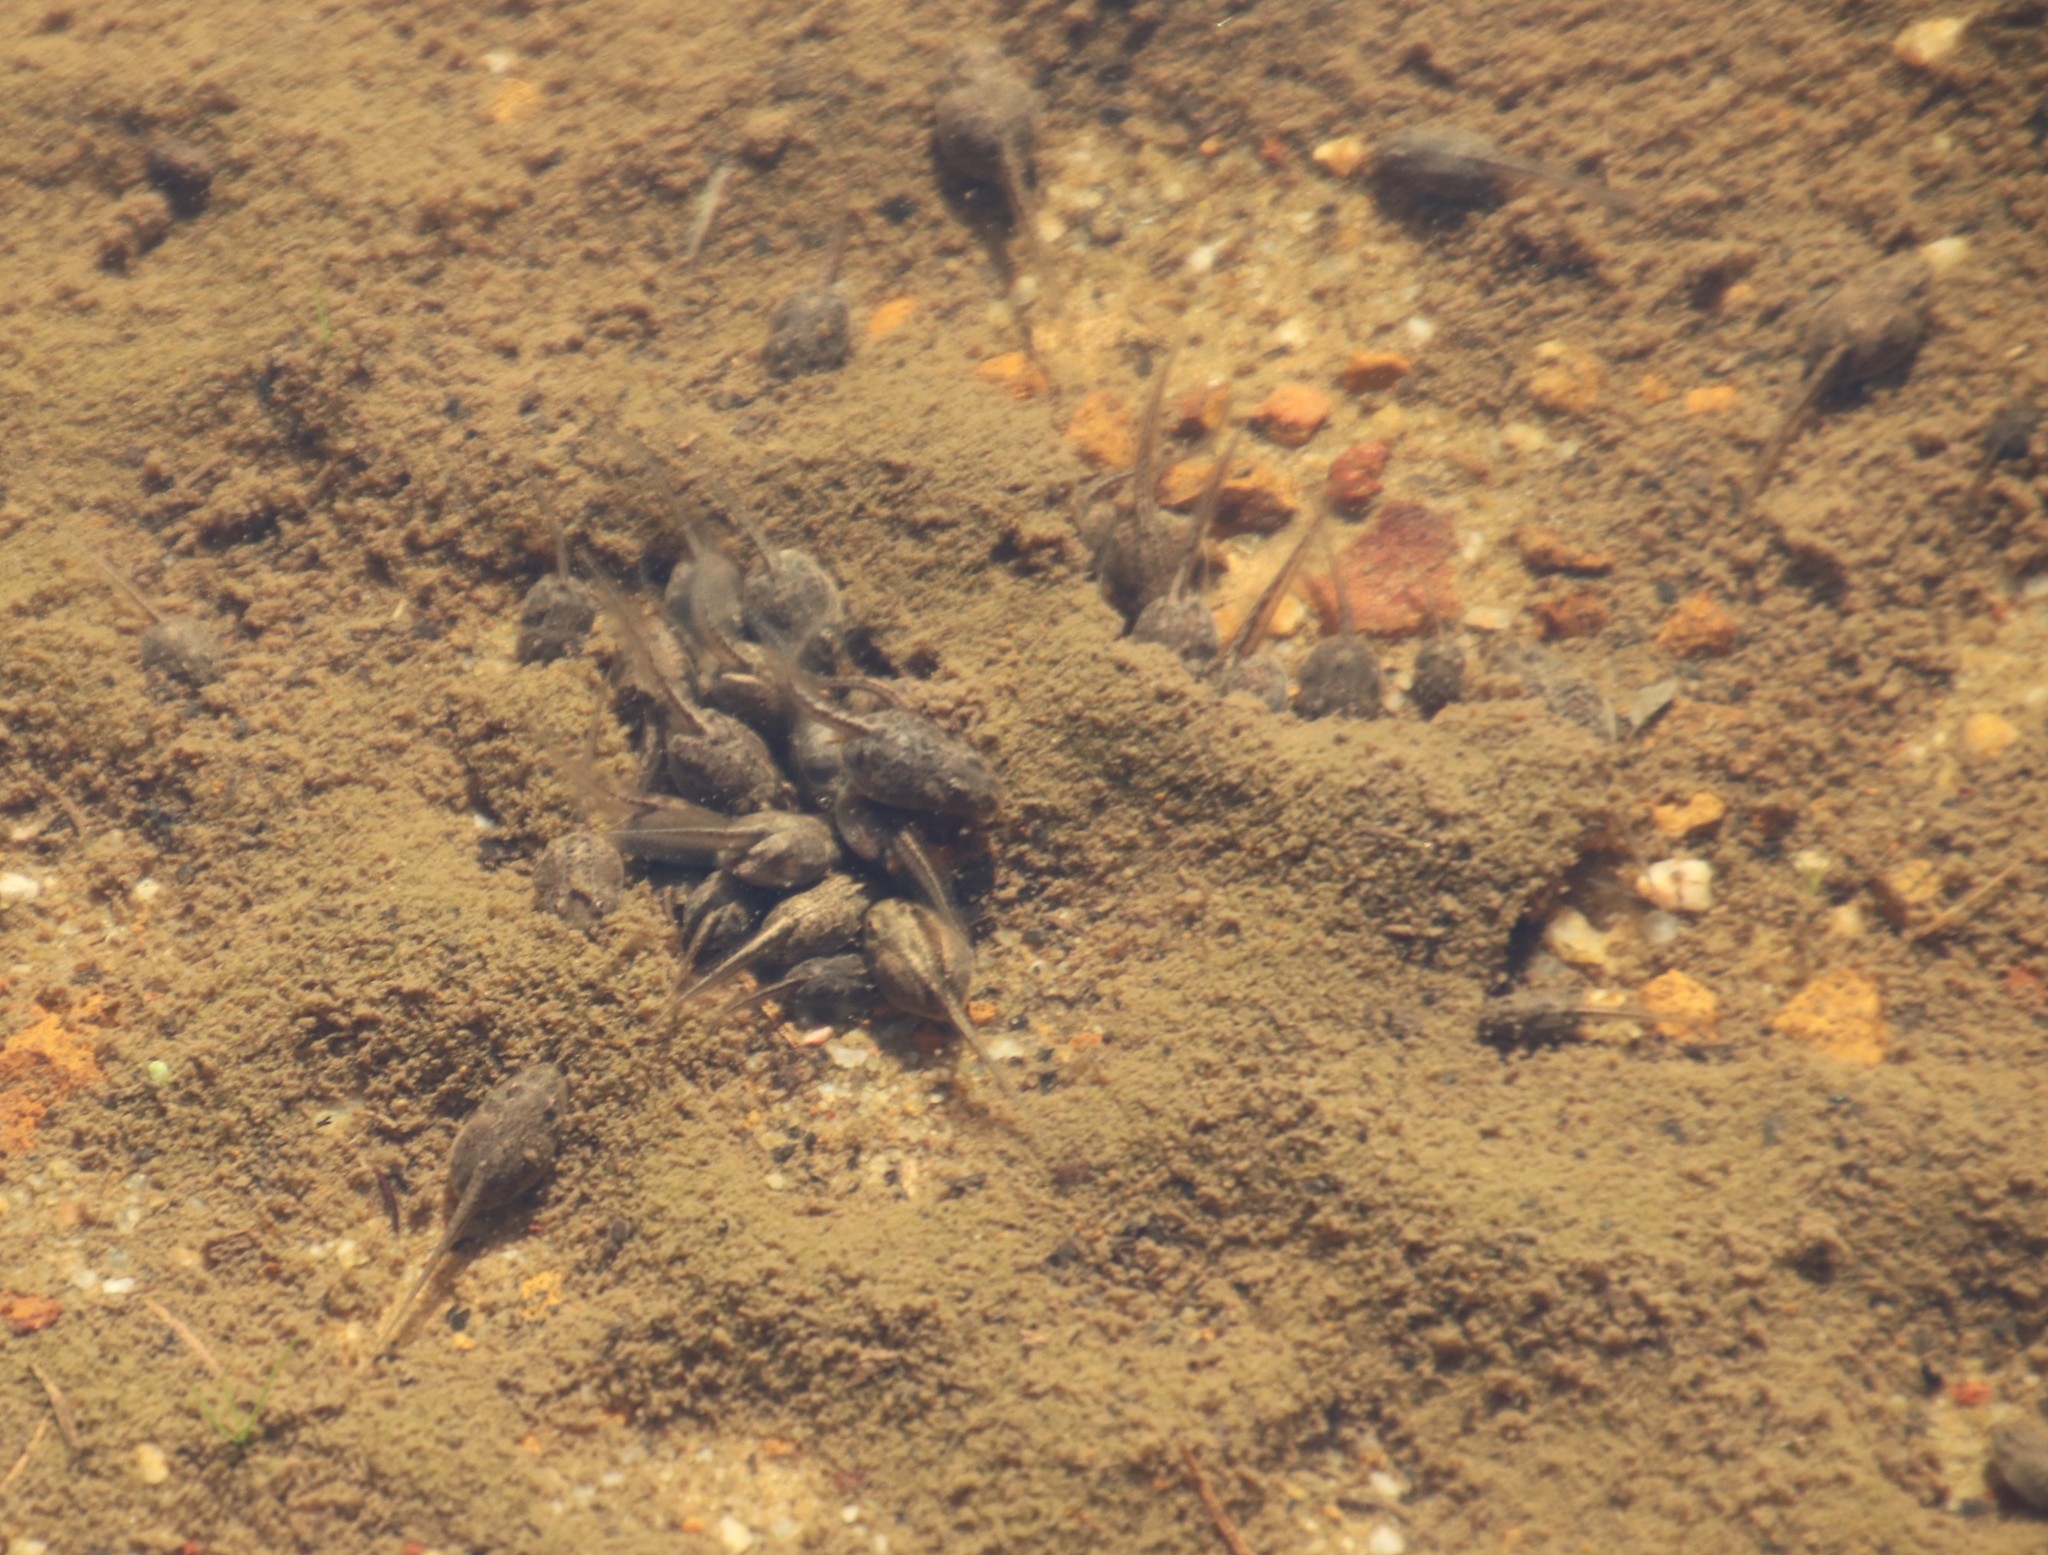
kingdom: Animalia
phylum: Chordata
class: Amphibia
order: Anura
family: Pyxicephalidae
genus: Strongylopus
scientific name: Strongylopus grayii
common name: Gray's stream frog
